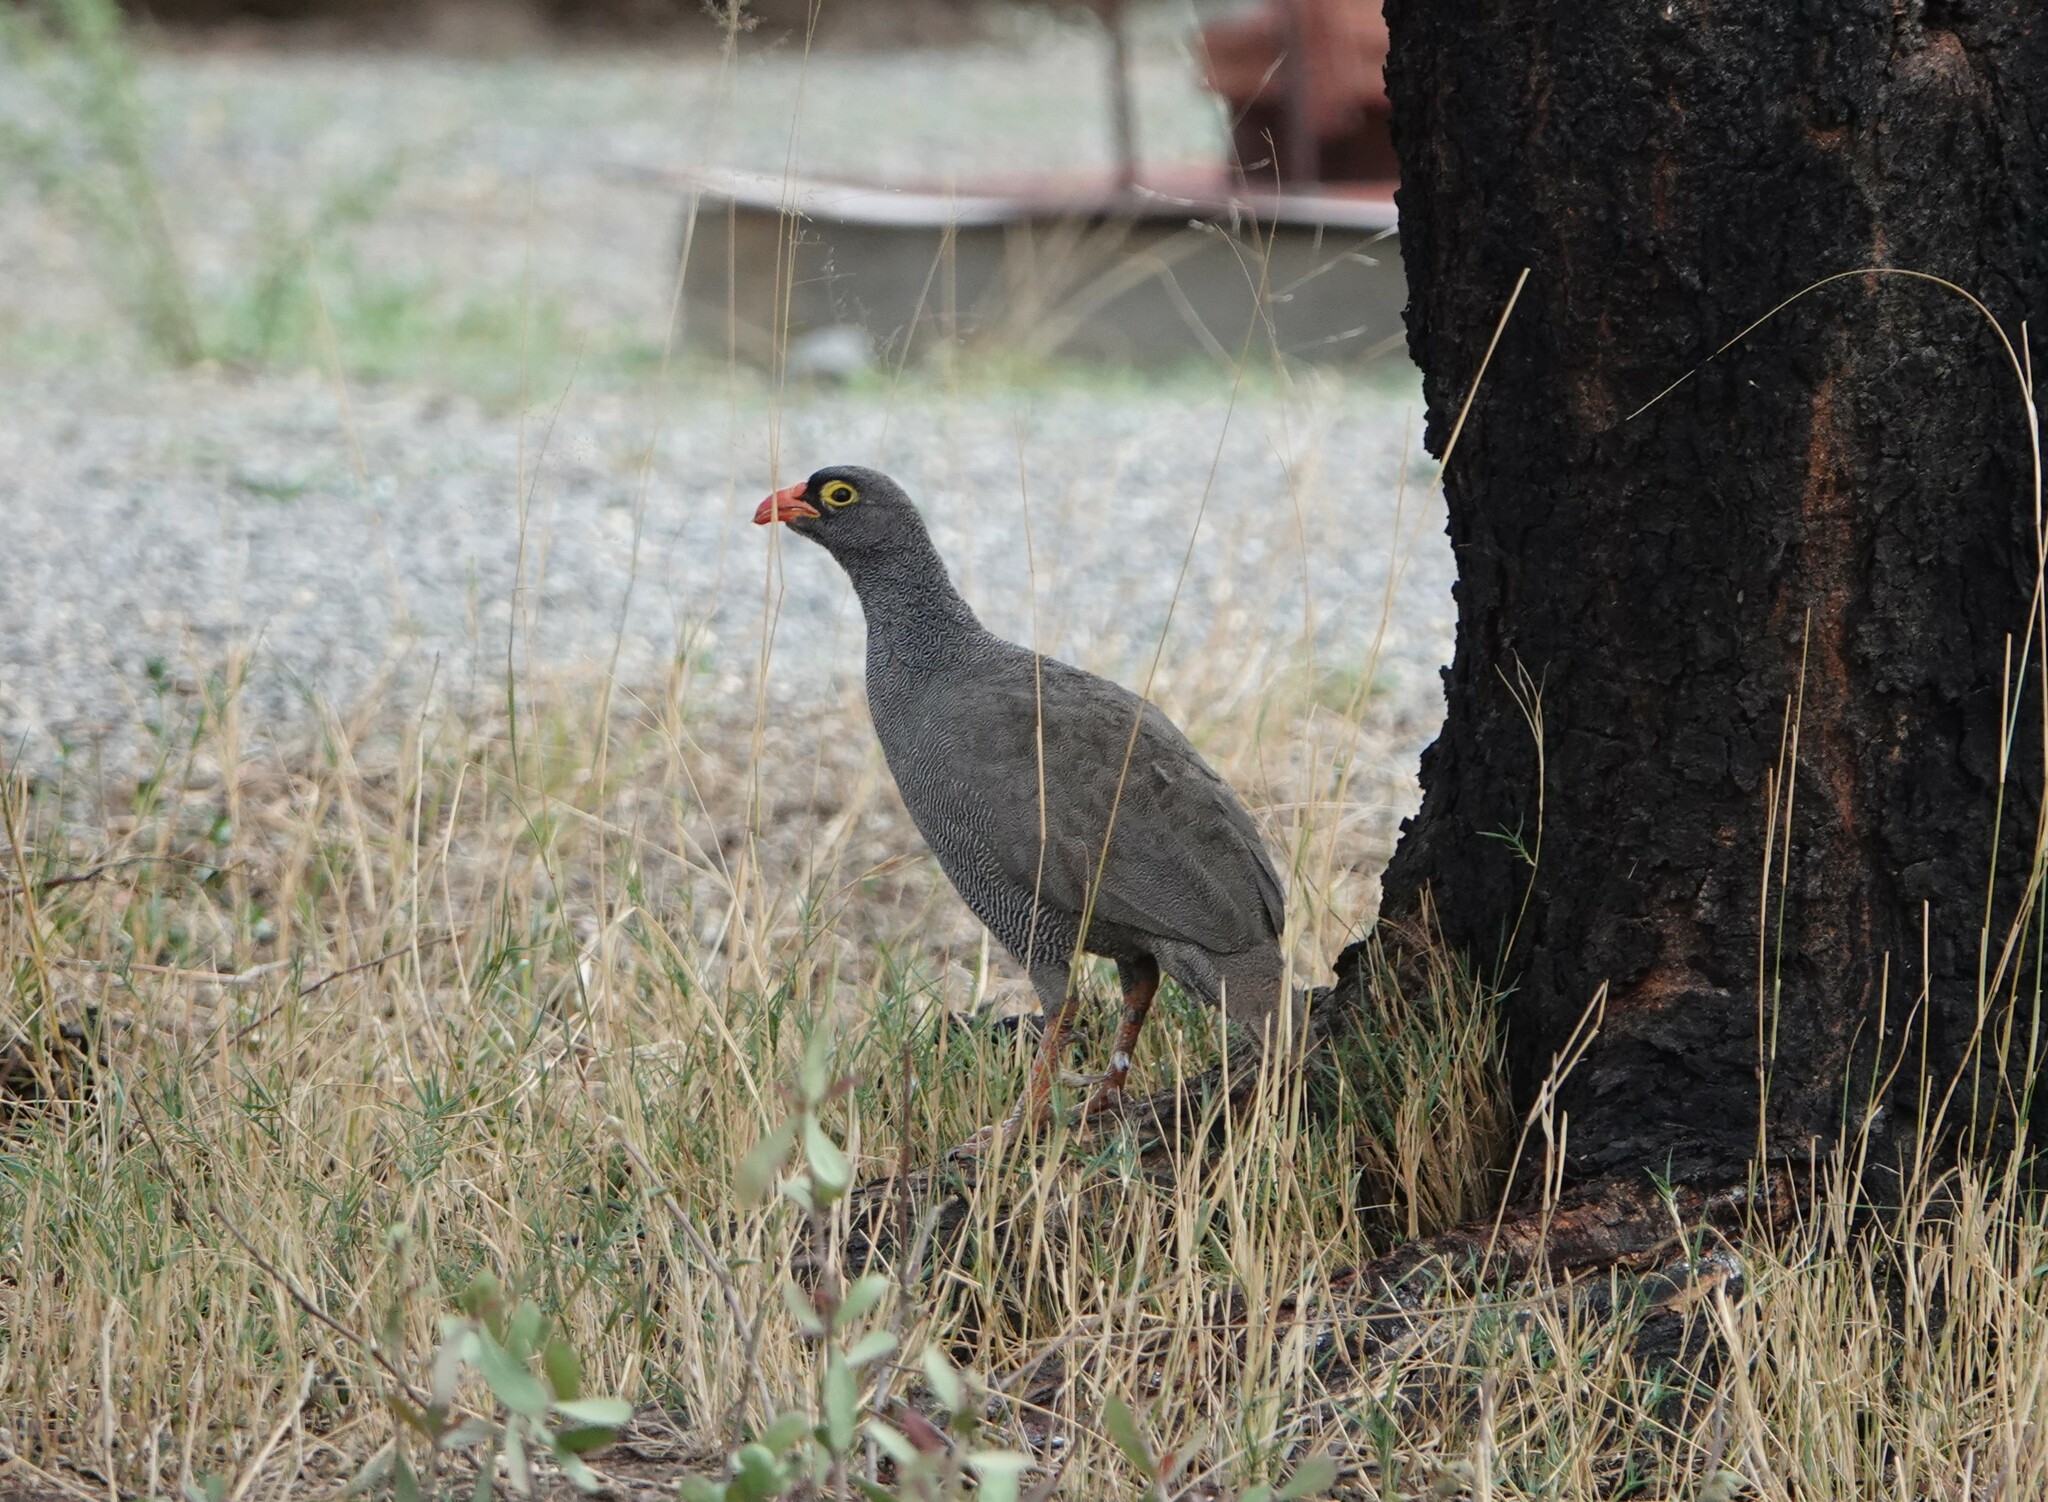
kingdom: Animalia
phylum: Chordata
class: Aves
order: Galliformes
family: Phasianidae
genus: Pternistis
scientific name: Pternistis adspersus
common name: Red-billed spurfowl
